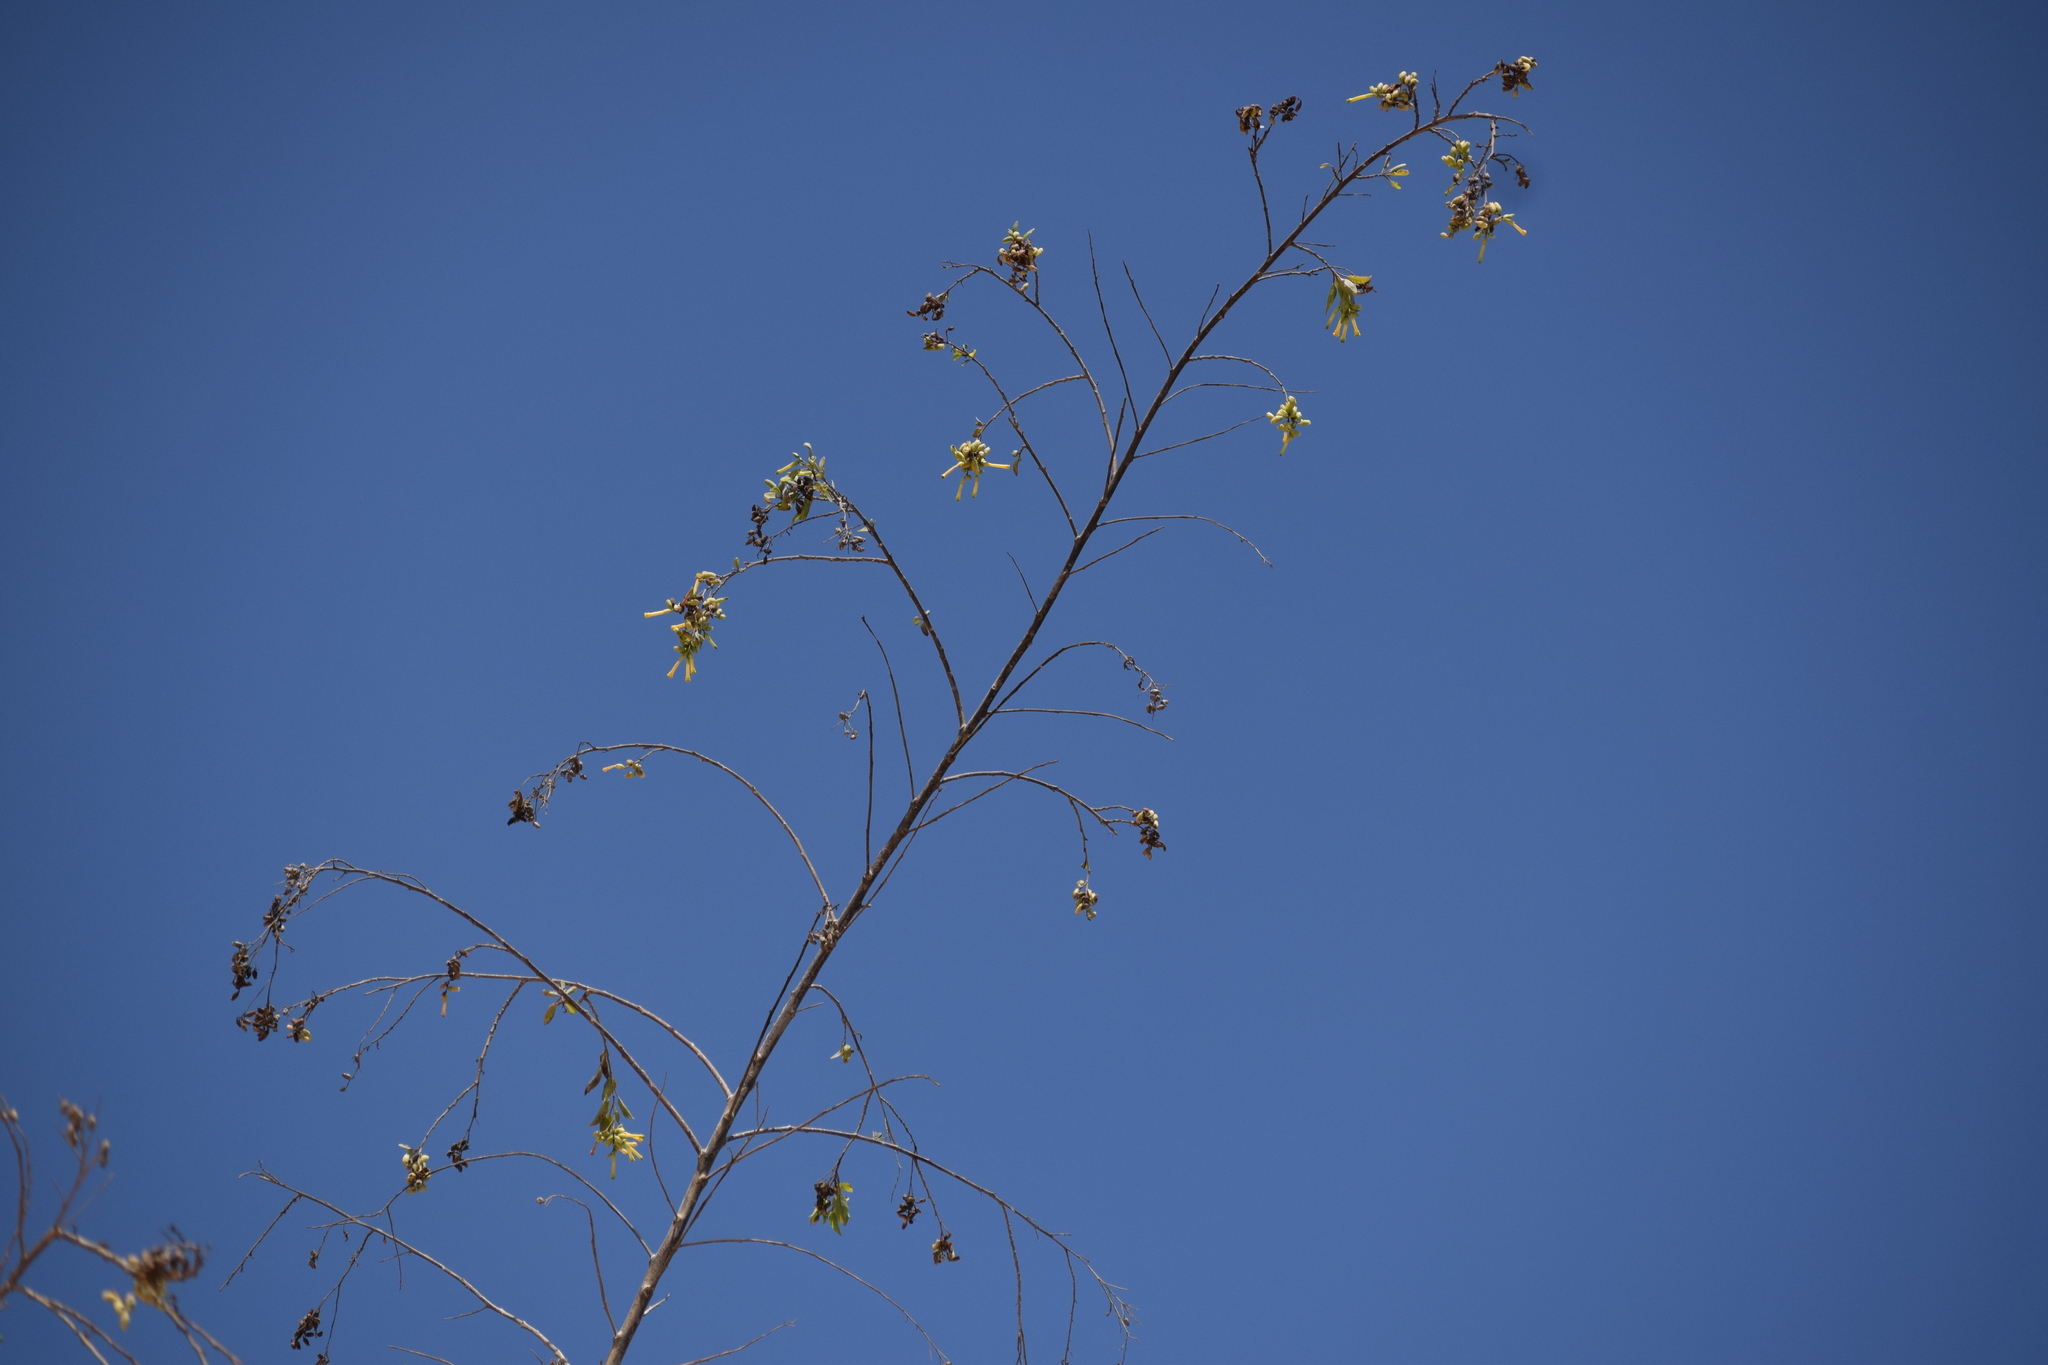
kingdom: Plantae
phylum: Tracheophyta
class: Magnoliopsida
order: Solanales
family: Solanaceae
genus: Nicotiana
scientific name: Nicotiana glauca
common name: Tree tobacco
